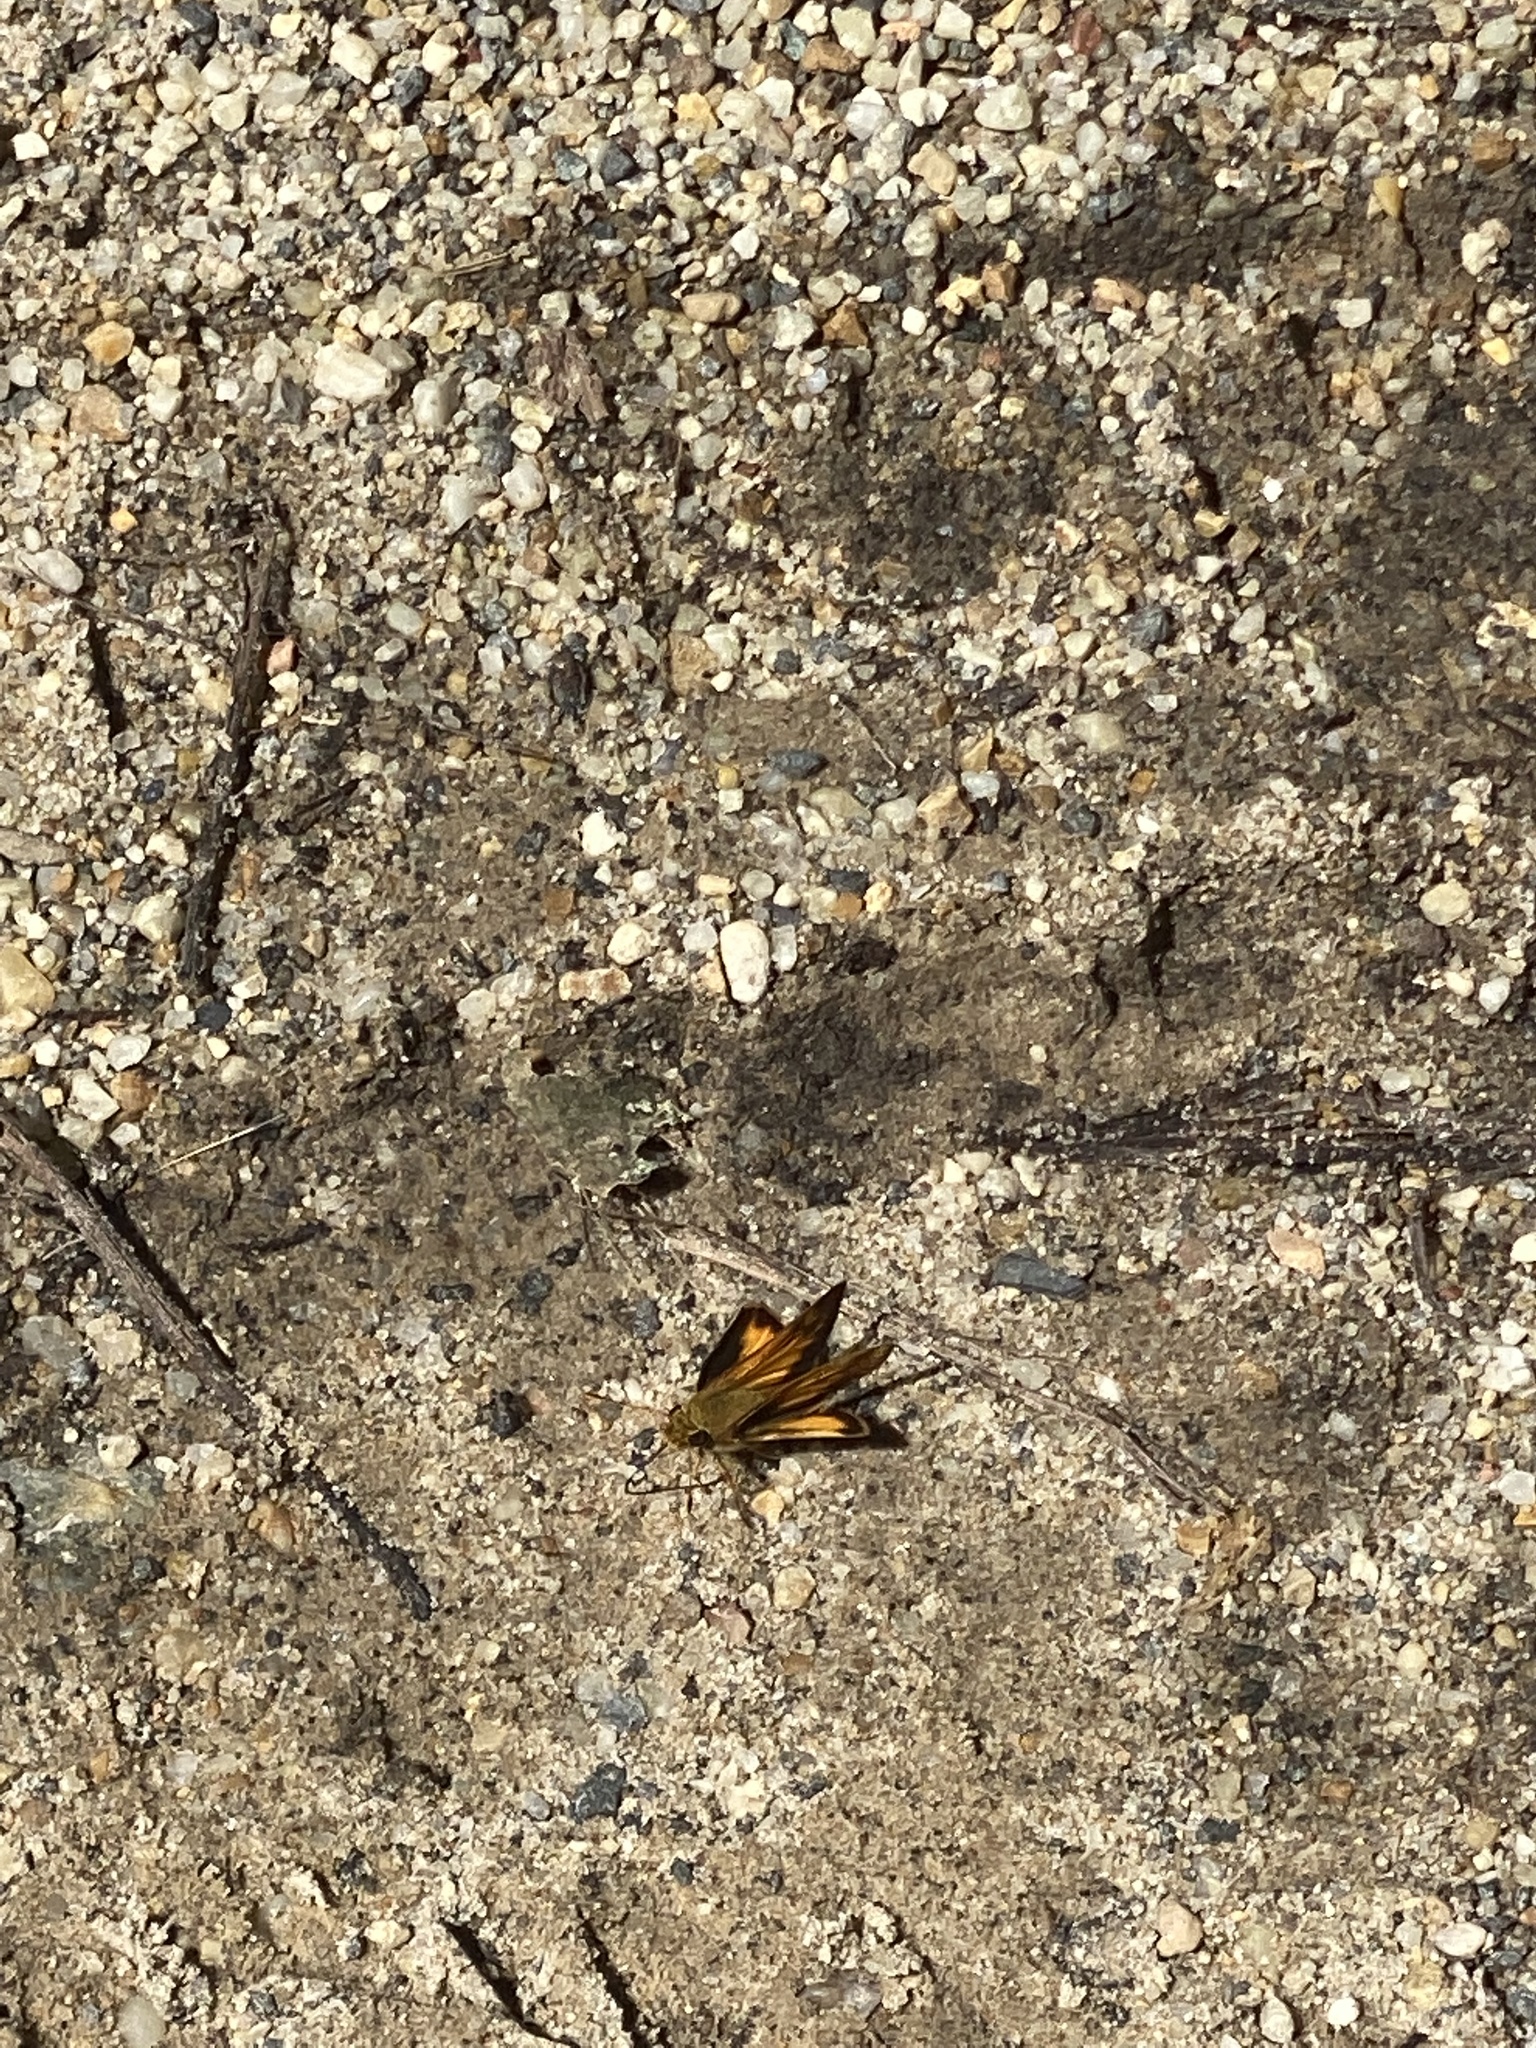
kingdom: Animalia
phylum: Arthropoda
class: Insecta
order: Lepidoptera
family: Hesperiidae
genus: Lon
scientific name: Lon zabulon
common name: Zabulon skipper
